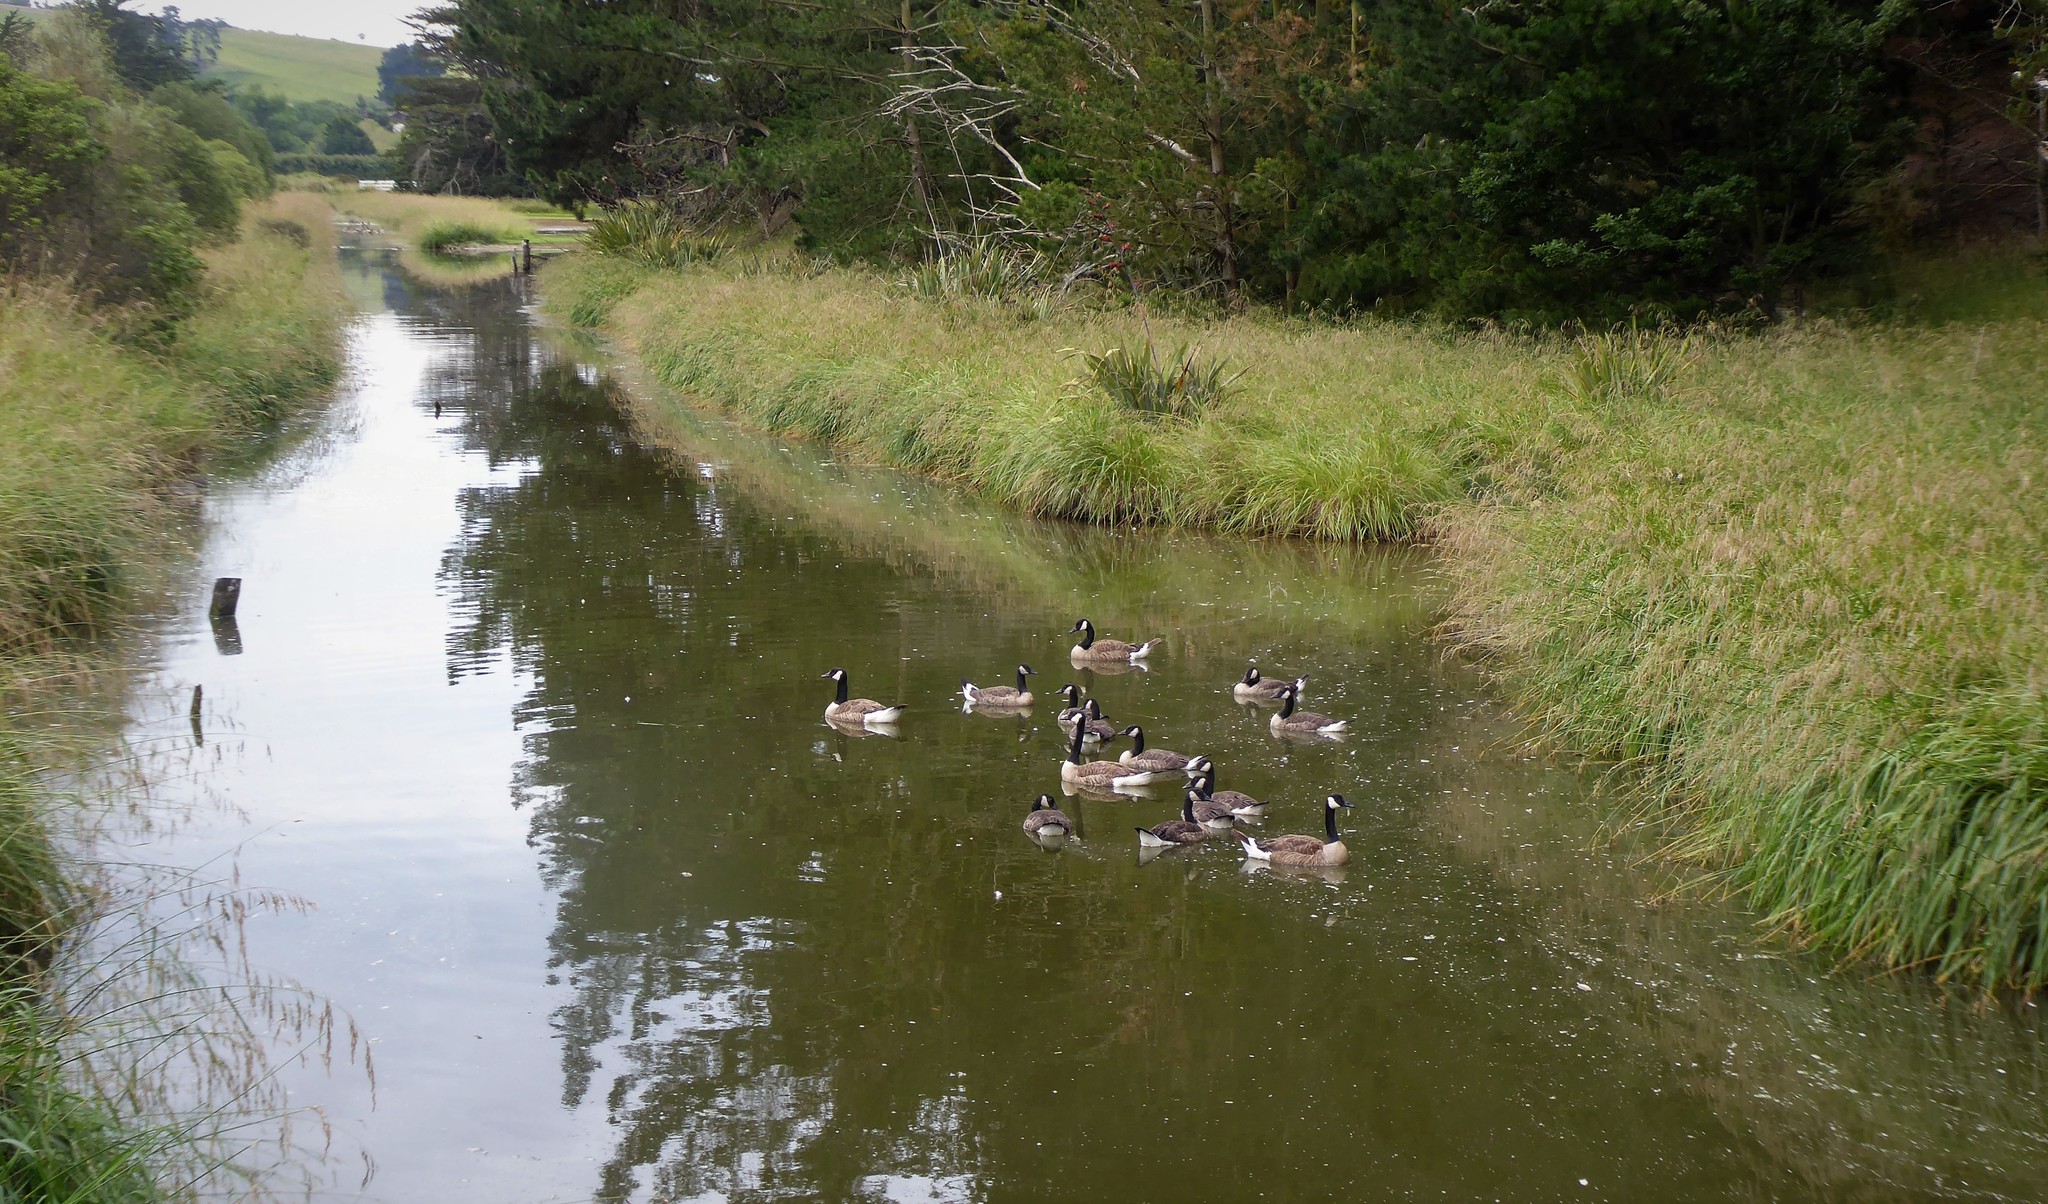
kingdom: Animalia
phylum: Chordata
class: Aves
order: Anseriformes
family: Anatidae
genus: Branta
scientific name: Branta canadensis
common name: Canada goose
